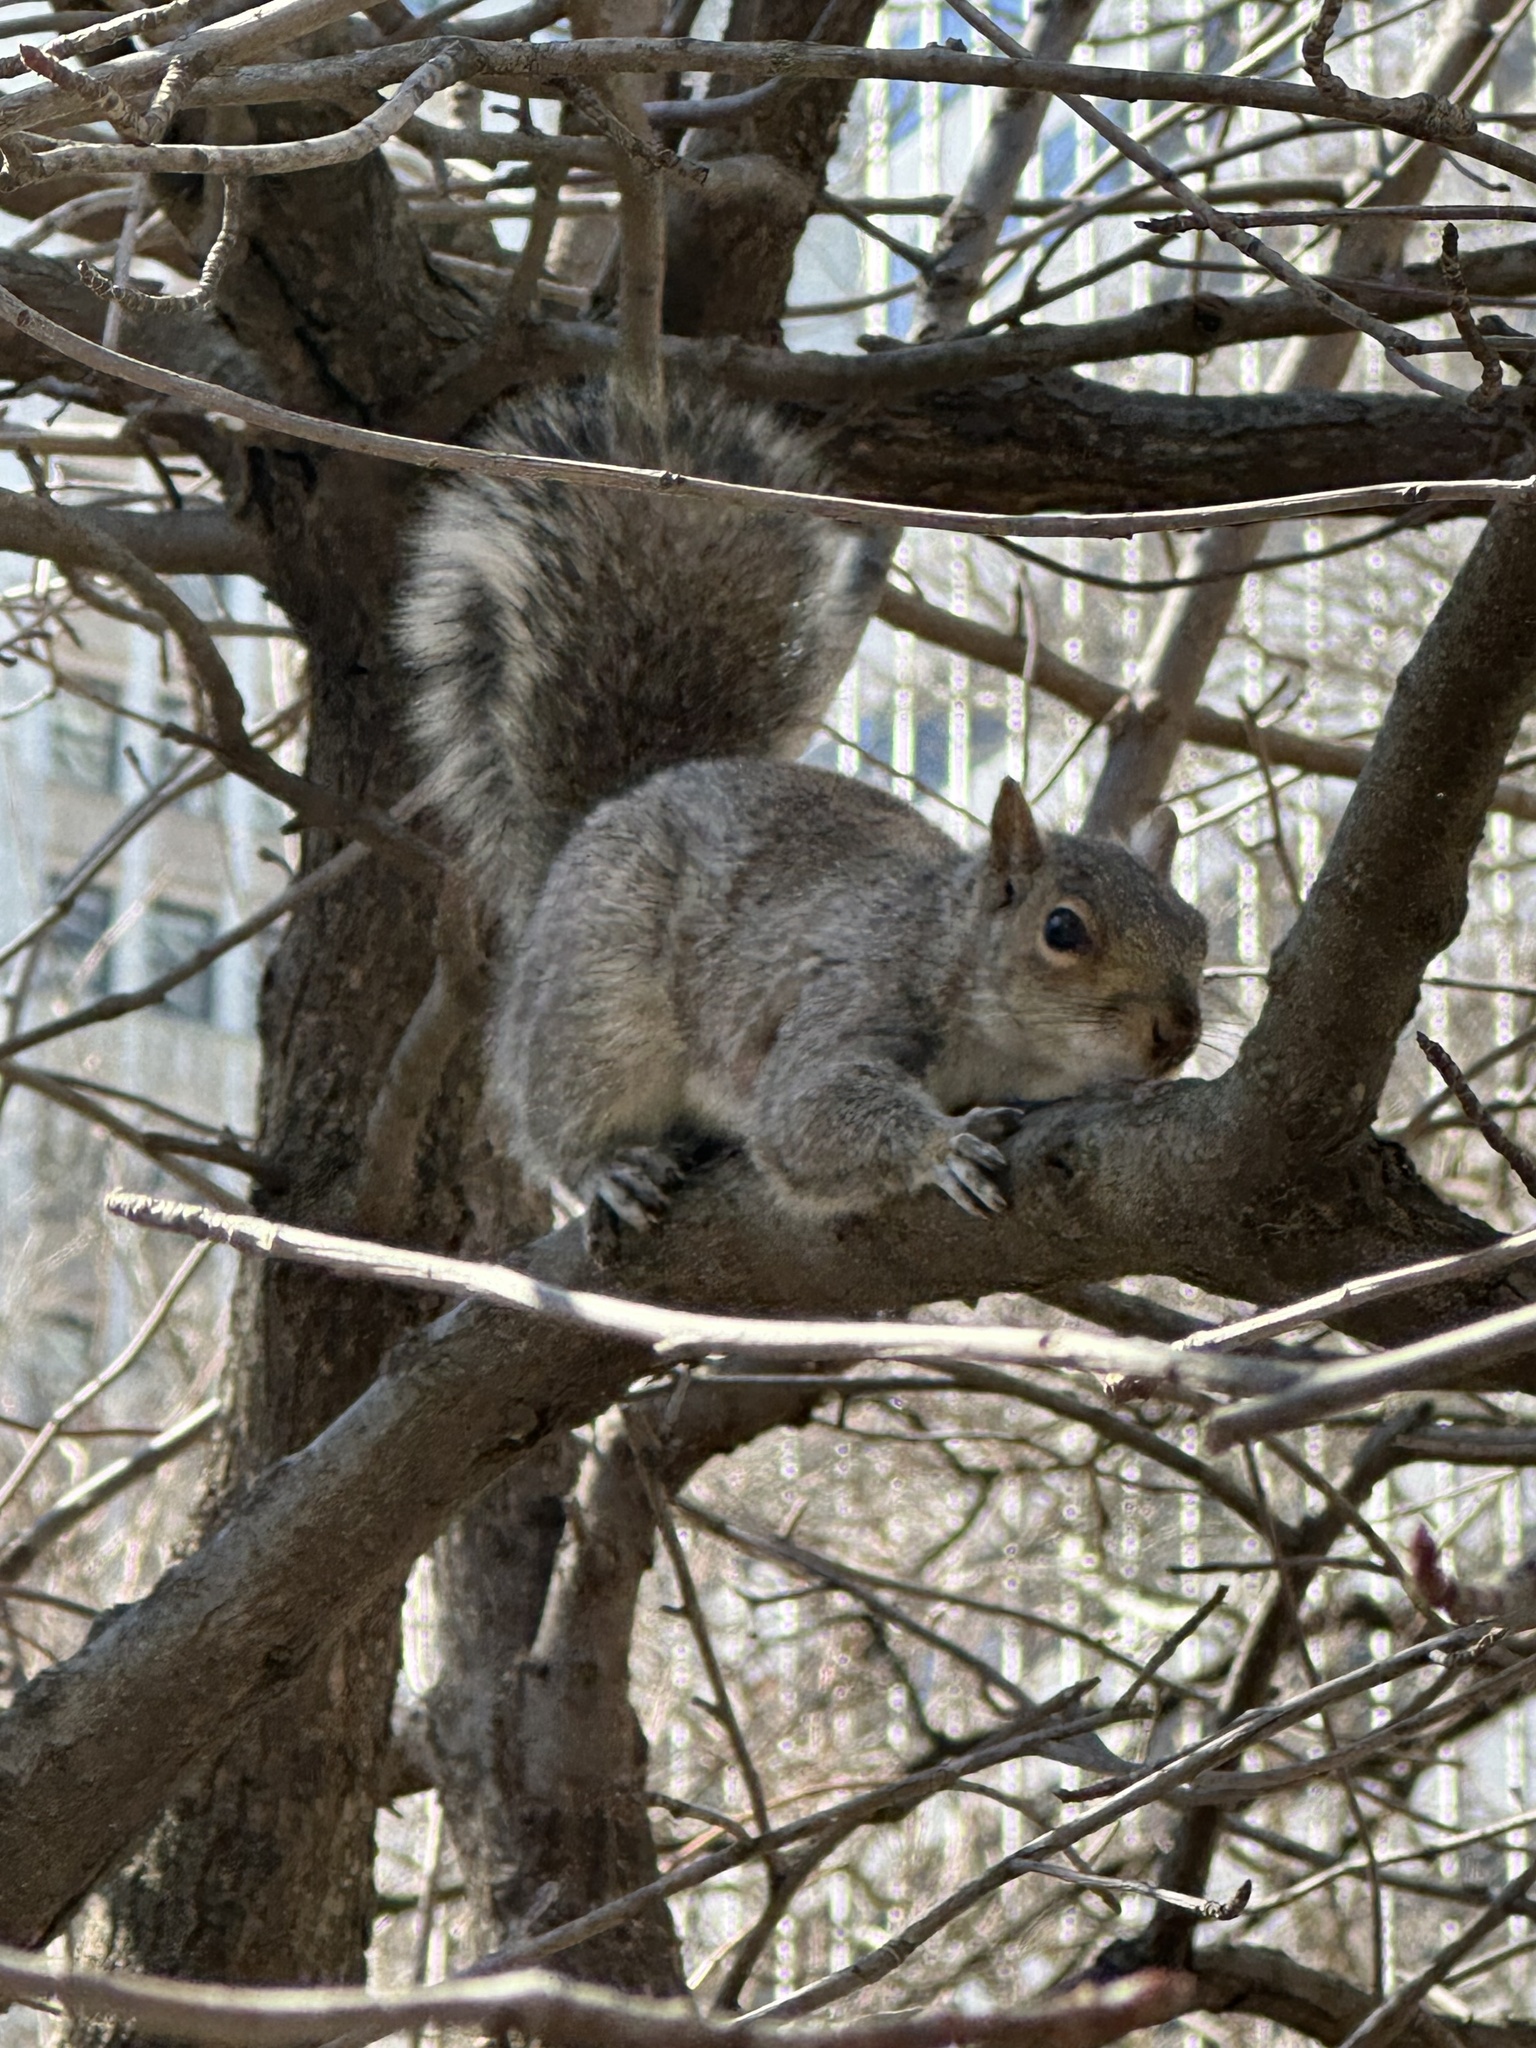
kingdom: Animalia
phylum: Chordata
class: Mammalia
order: Rodentia
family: Sciuridae
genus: Sciurus
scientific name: Sciurus carolinensis
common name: Eastern gray squirrel
